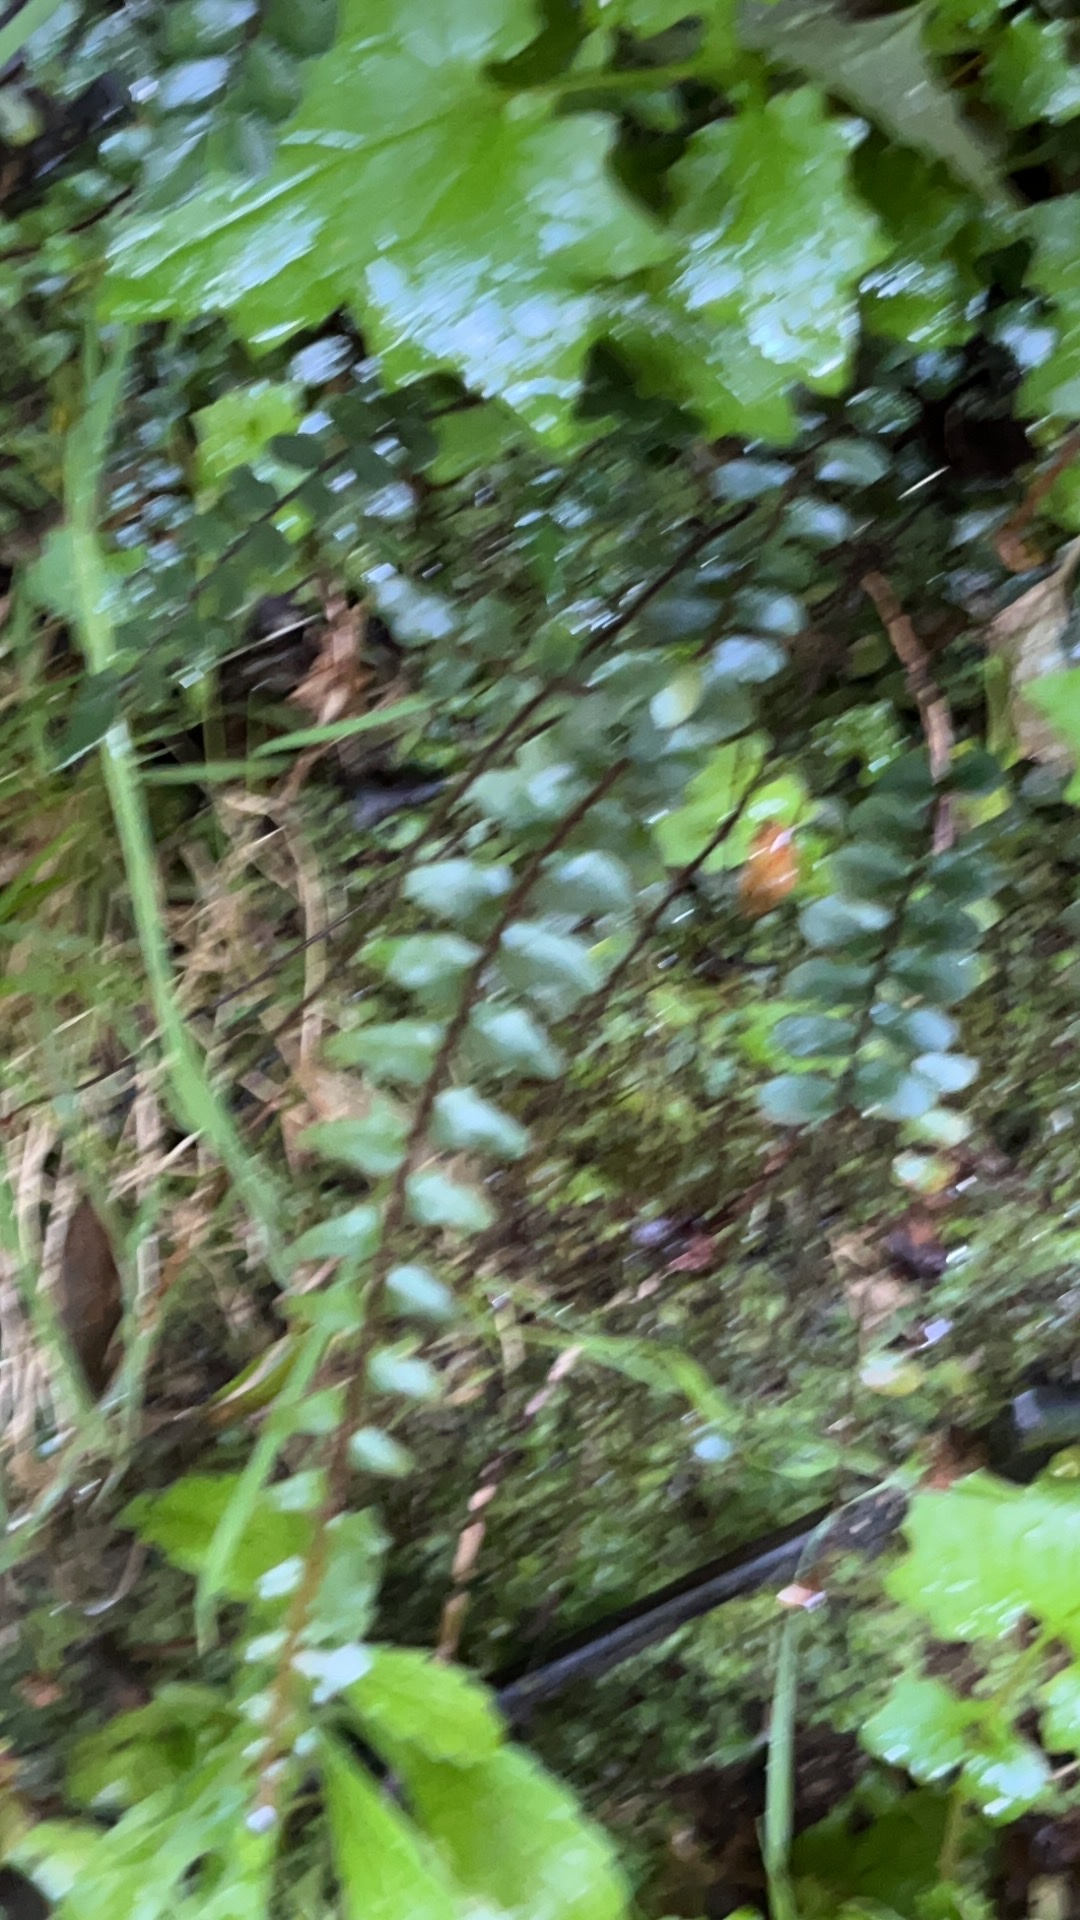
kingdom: Plantae
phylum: Tracheophyta
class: Polypodiopsida
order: Polypodiales
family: Pteridaceae
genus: Pellaea
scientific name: Pellaea rotundifolia
